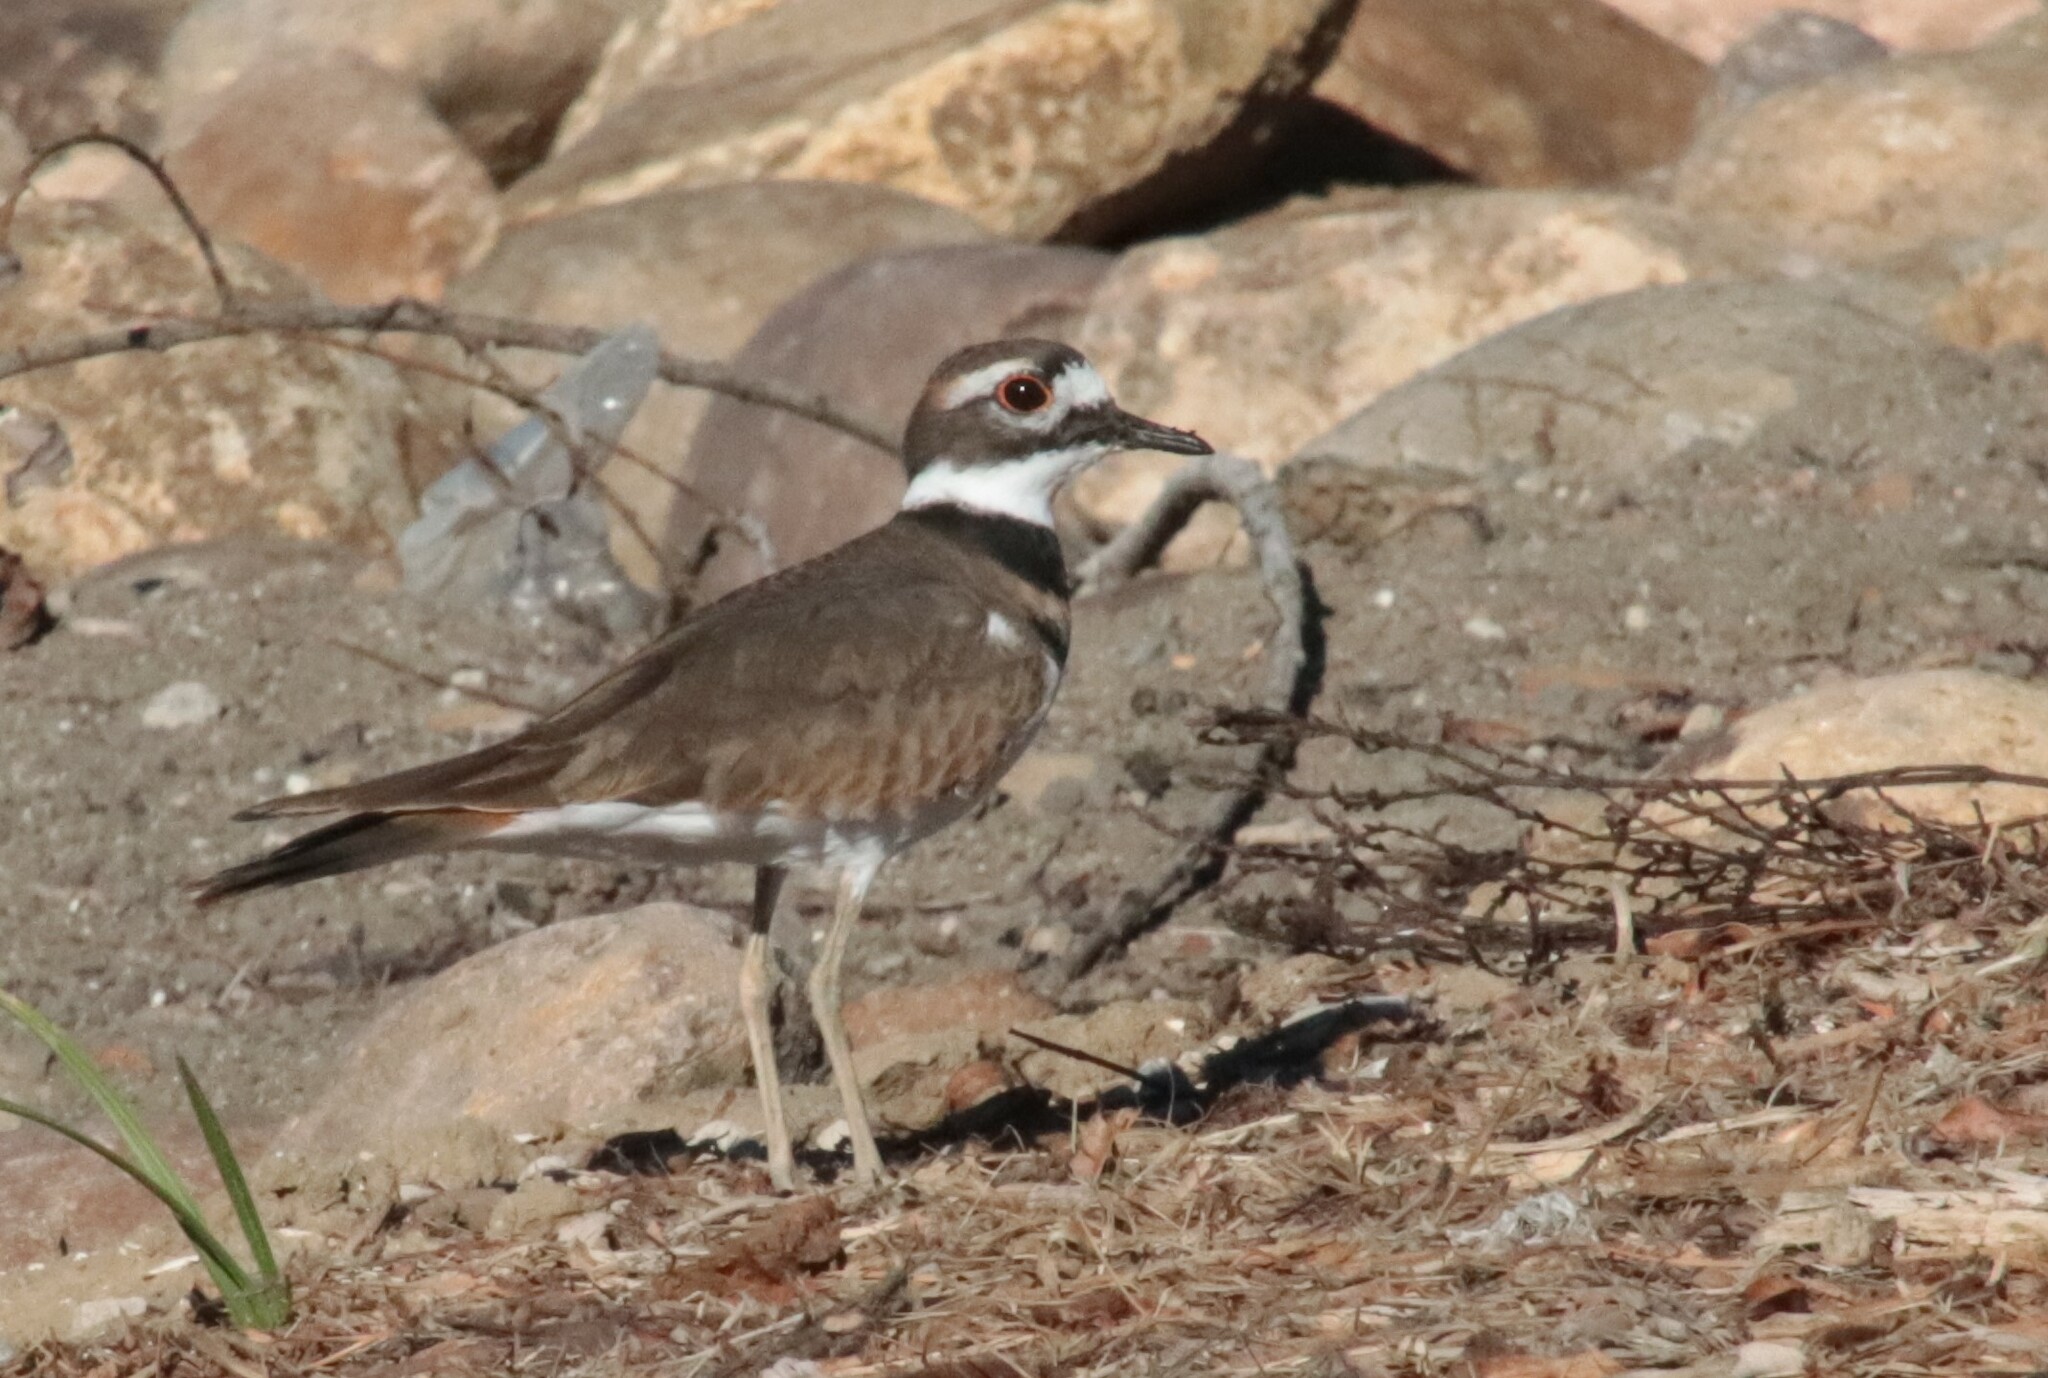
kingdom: Animalia
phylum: Chordata
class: Aves
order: Charadriiformes
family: Charadriidae
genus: Charadrius
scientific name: Charadrius vociferus
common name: Killdeer
